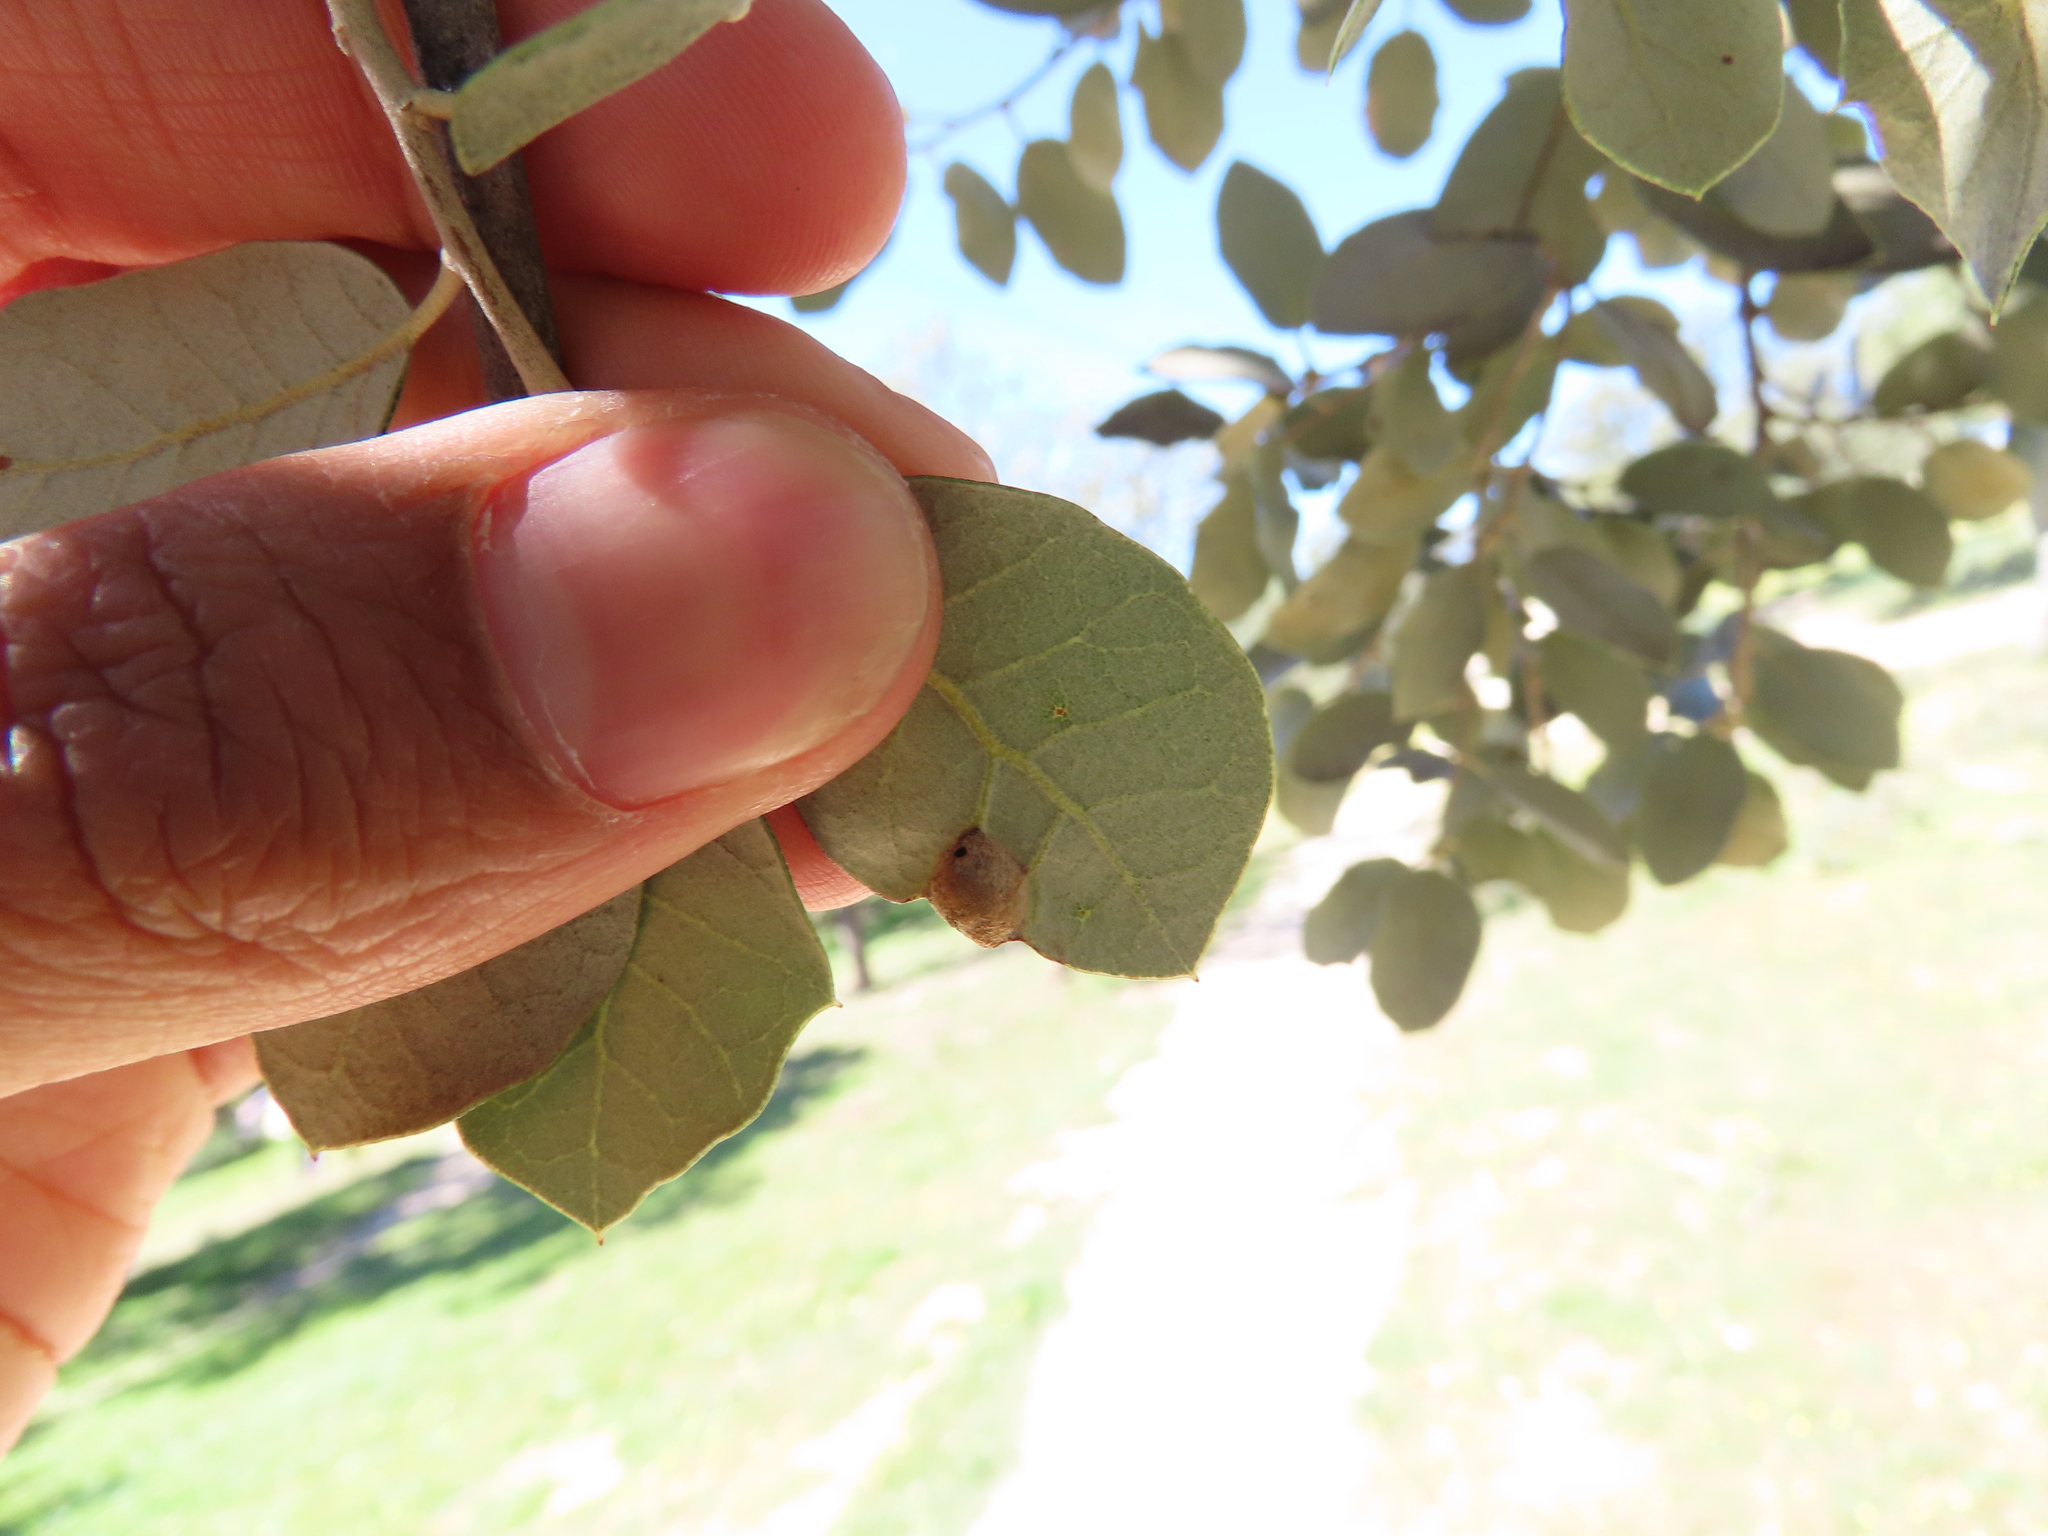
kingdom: Animalia
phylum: Arthropoda
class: Insecta
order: Hymenoptera
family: Cynipidae
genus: Plagiotrochus
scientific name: Plagiotrochus australis
